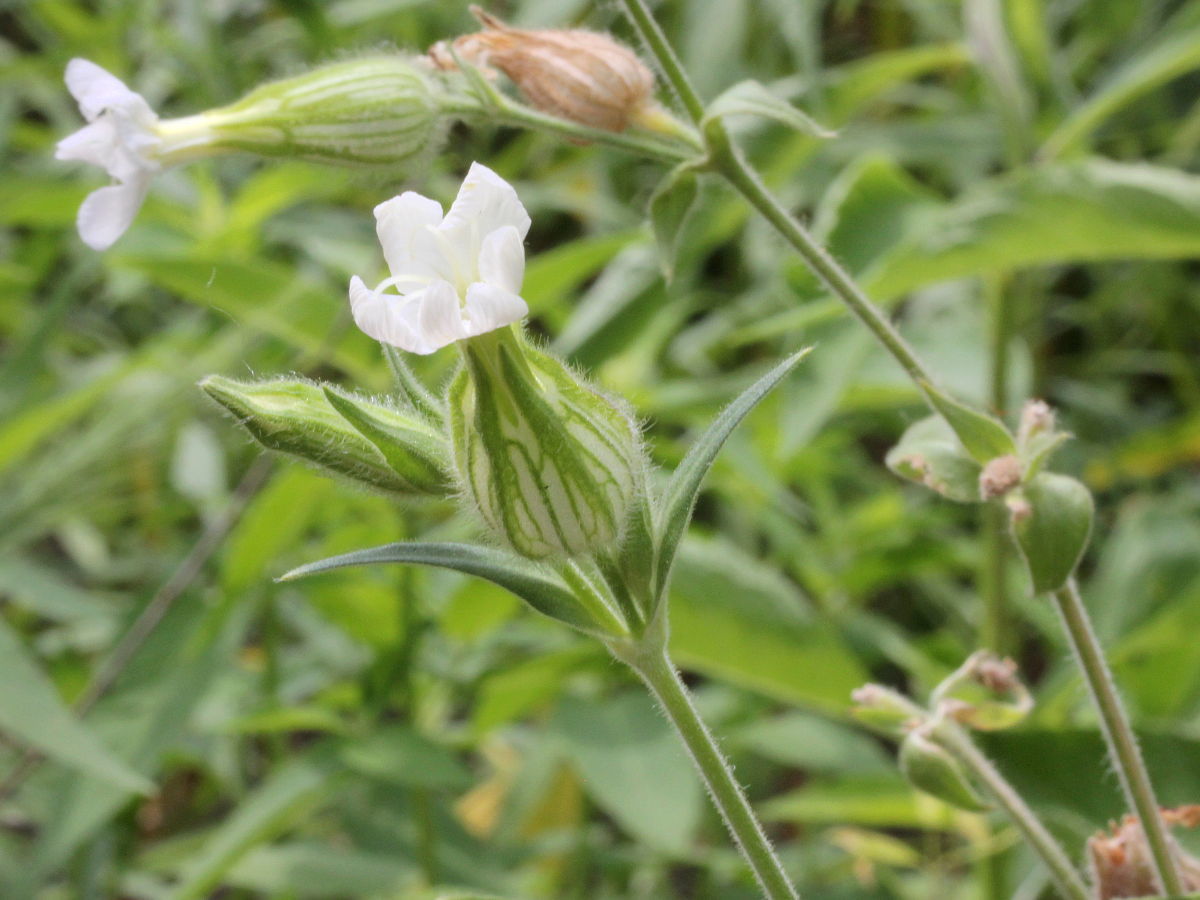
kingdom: Plantae
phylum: Tracheophyta
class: Magnoliopsida
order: Caryophyllales
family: Caryophyllaceae
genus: Silene
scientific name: Silene latifolia
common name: White campion
